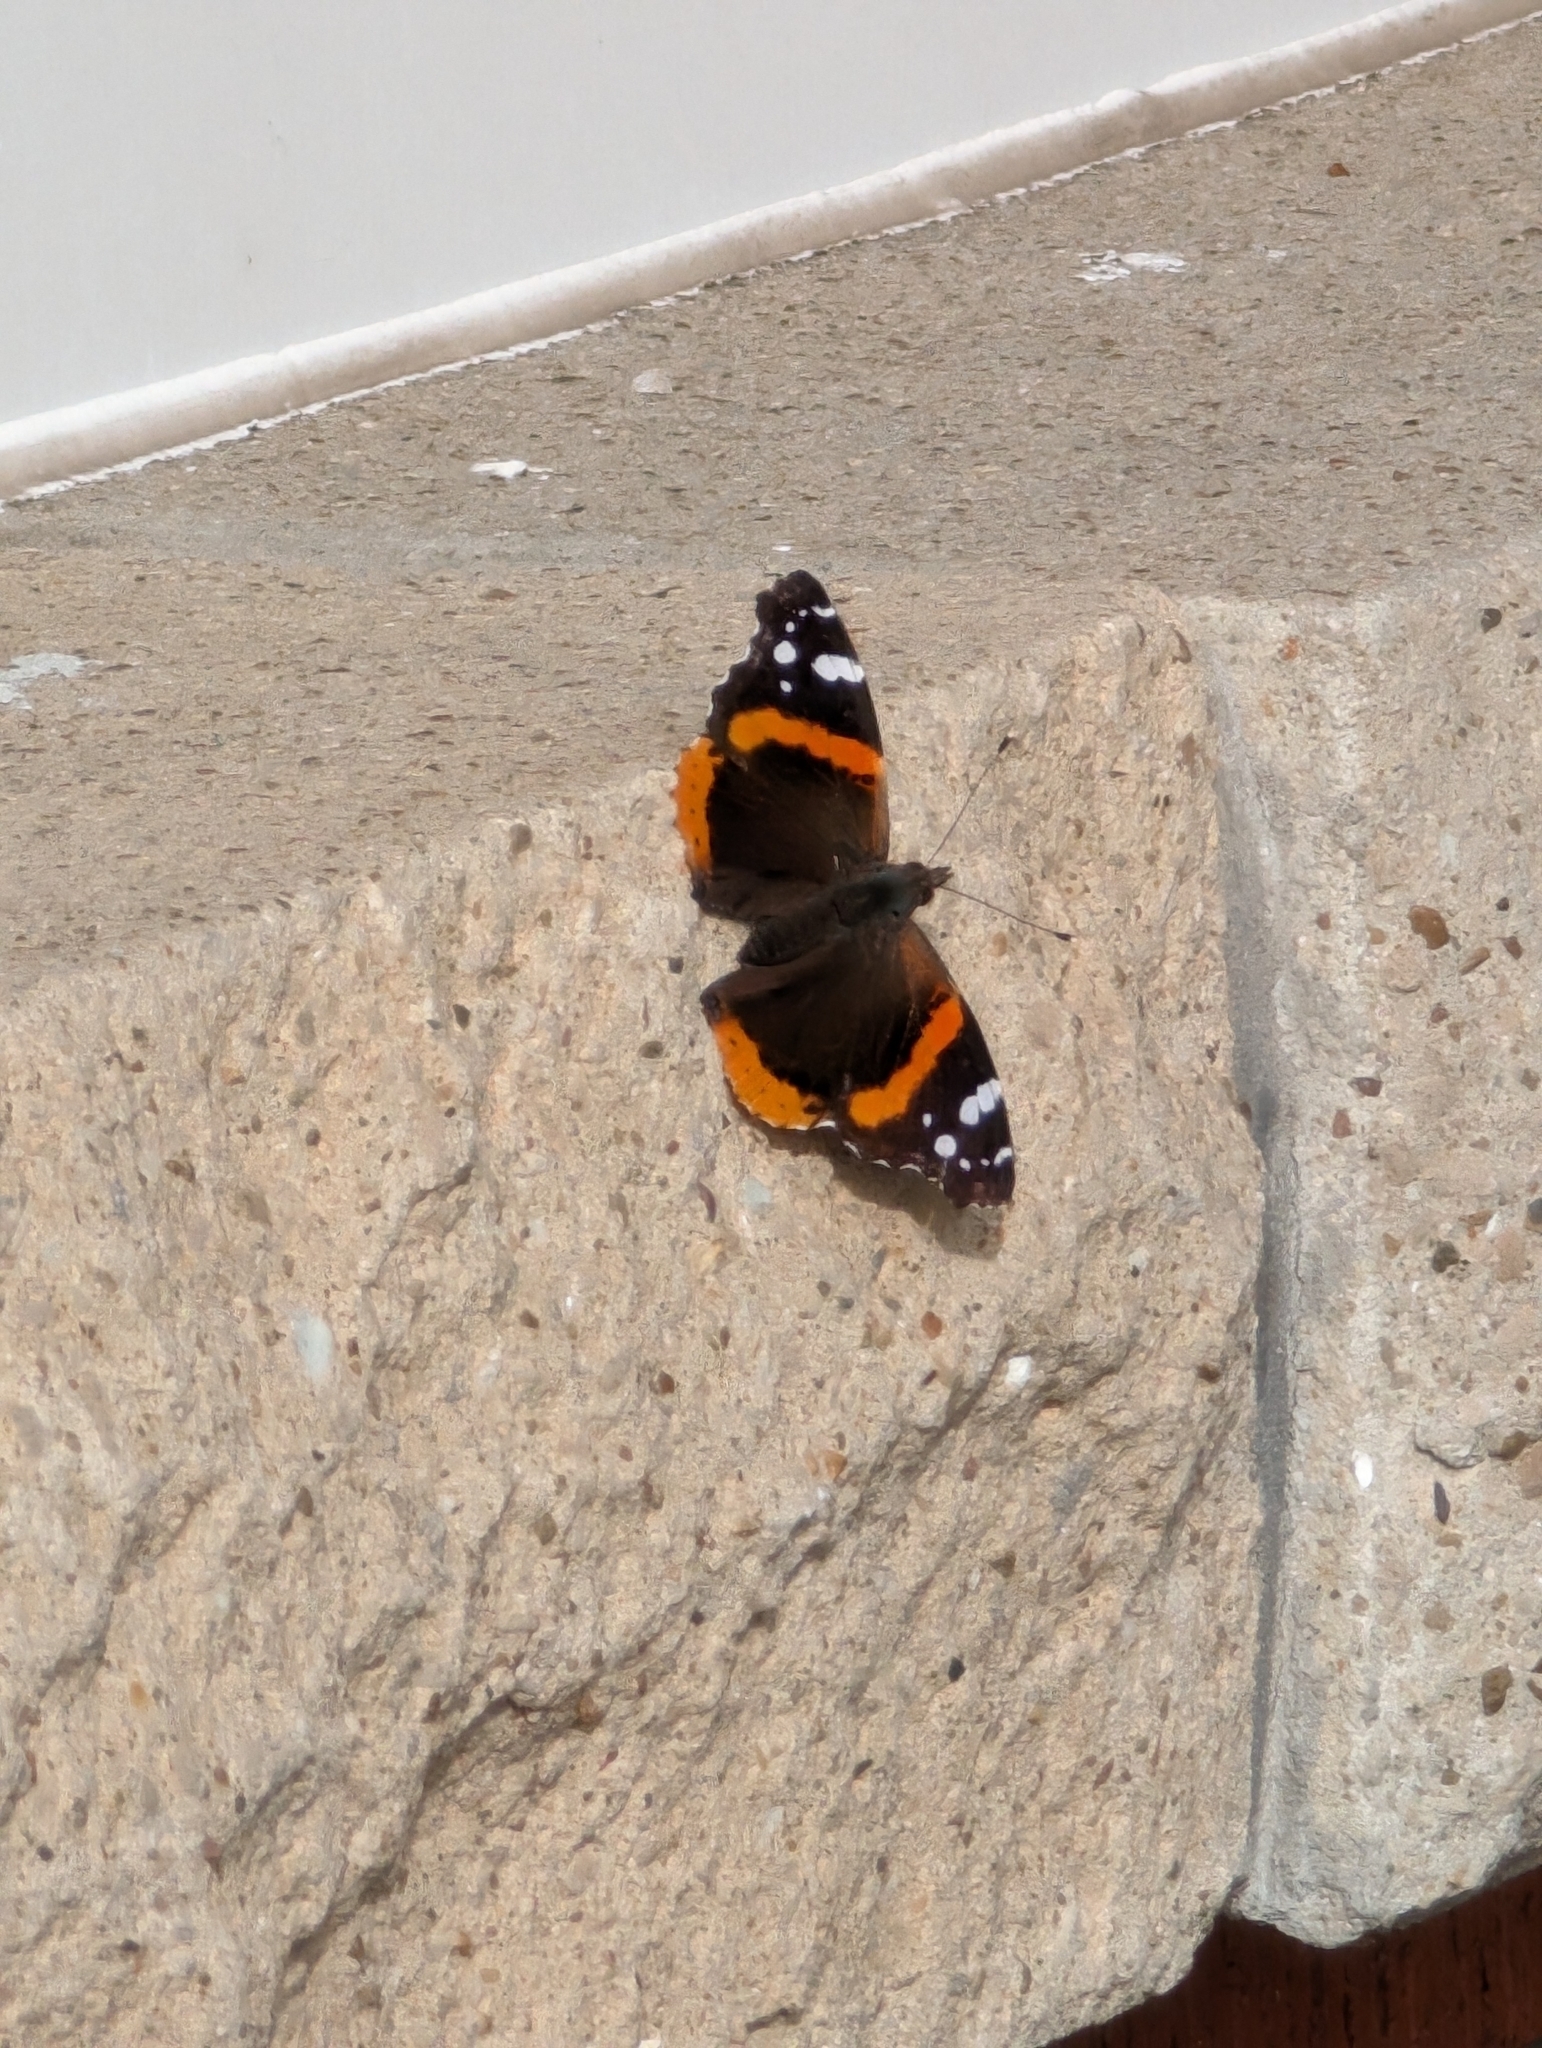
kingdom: Animalia
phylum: Arthropoda
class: Insecta
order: Lepidoptera
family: Nymphalidae
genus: Vanessa
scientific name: Vanessa atalanta
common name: Red admiral
